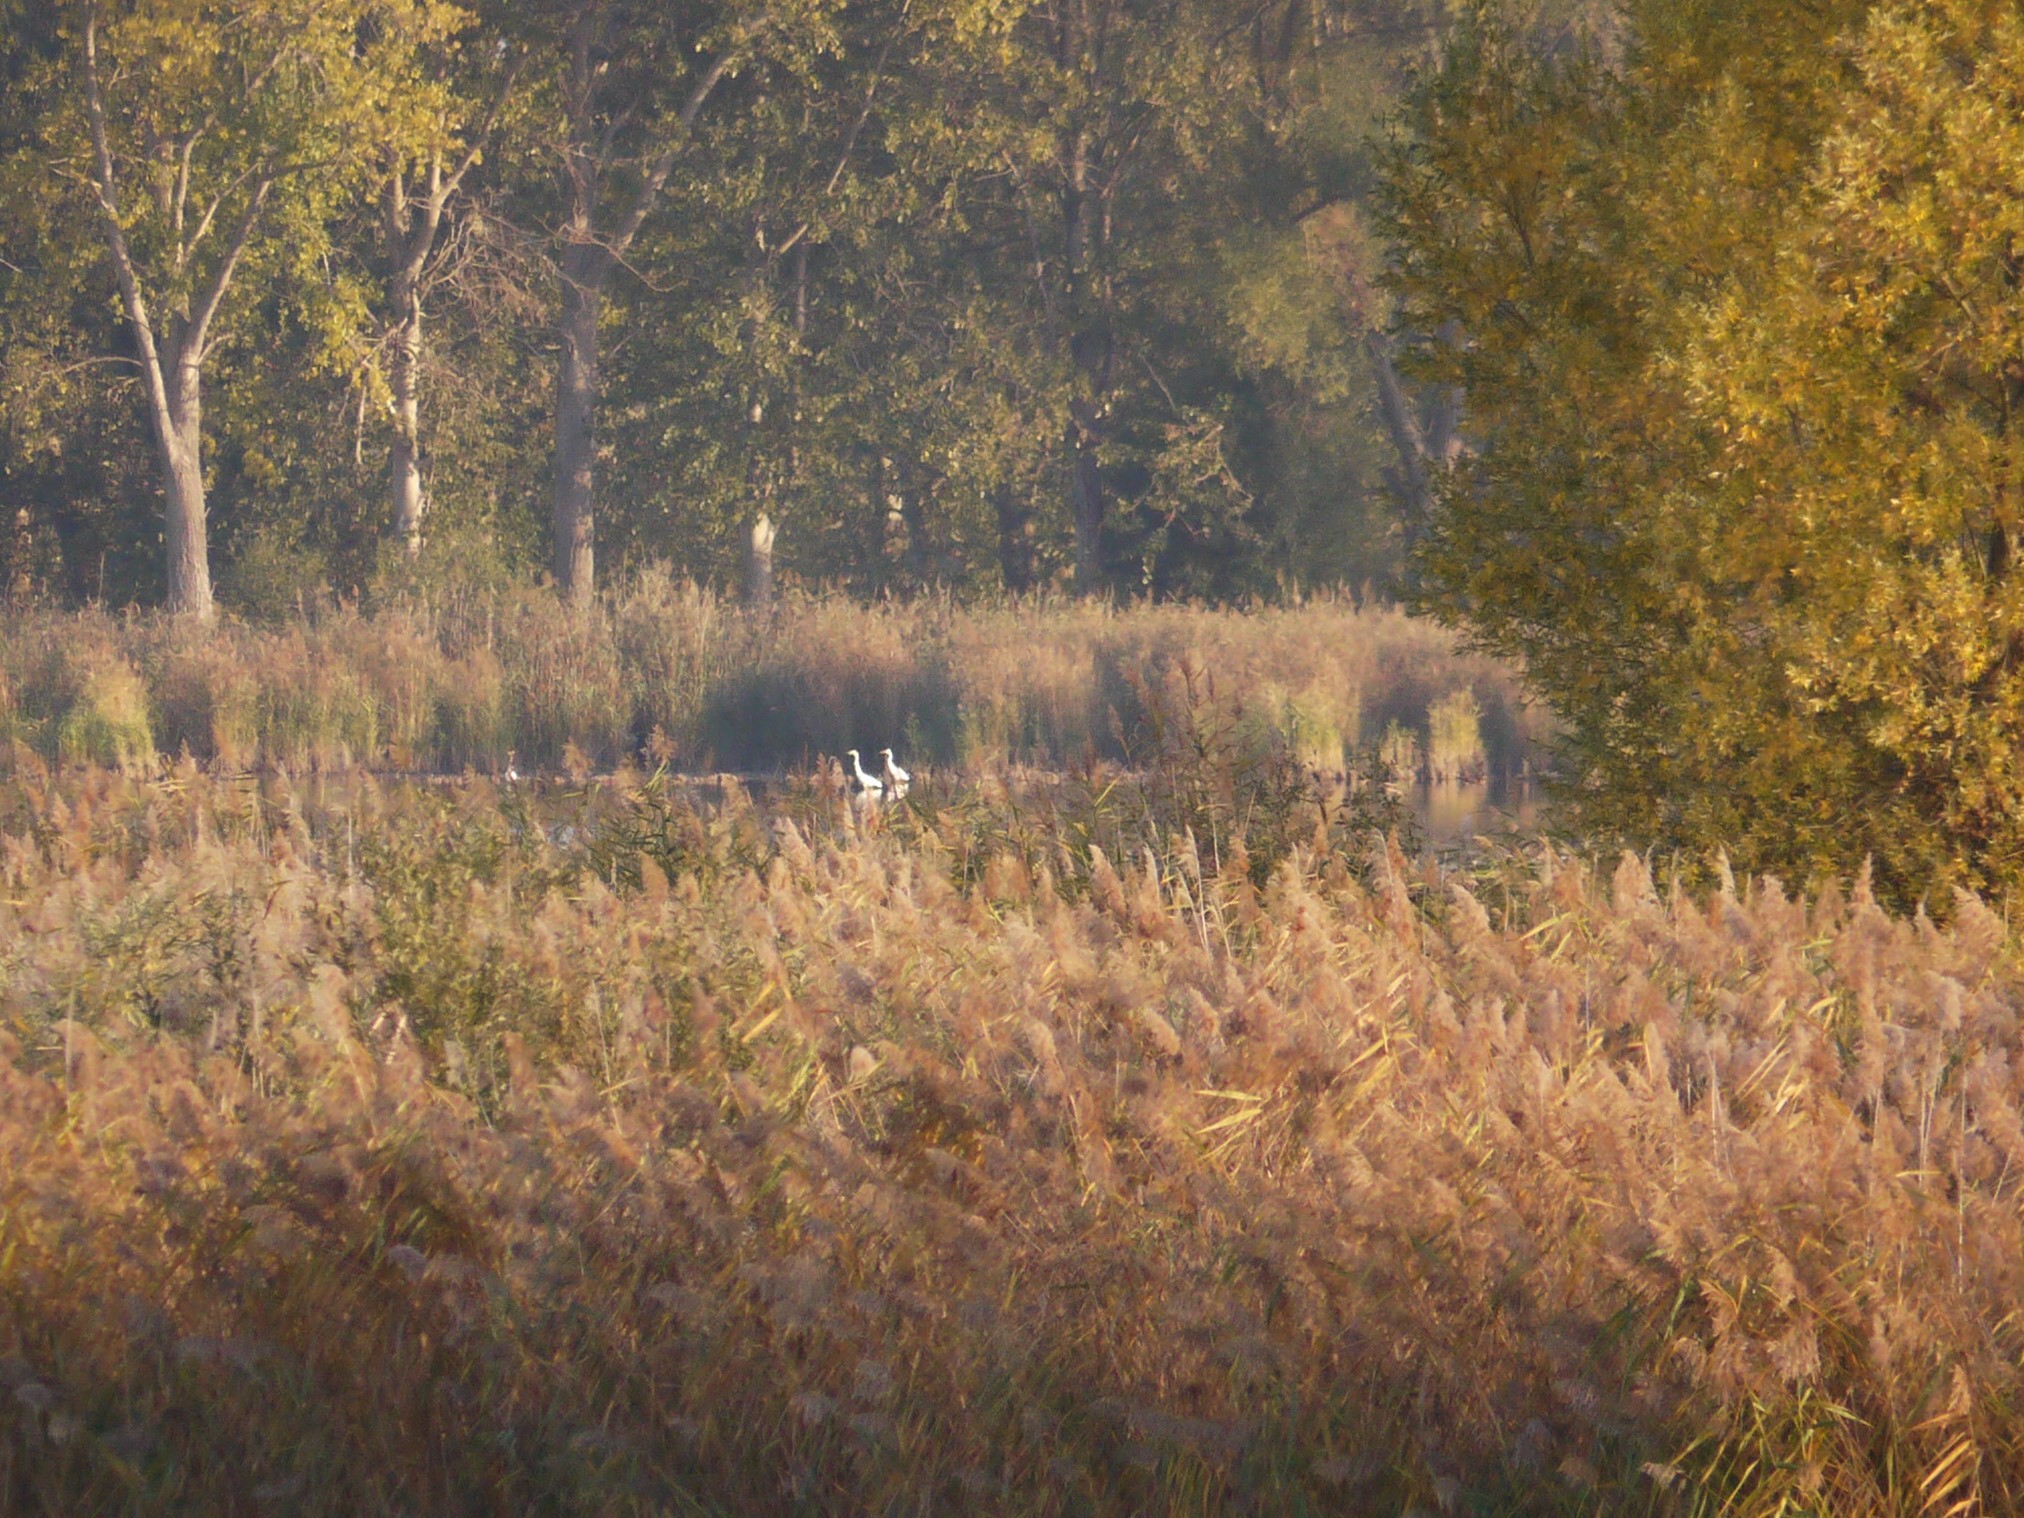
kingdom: Animalia
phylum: Chordata
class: Aves
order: Pelecaniformes
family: Ardeidae
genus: Ardea
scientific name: Ardea alba
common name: Great egret
